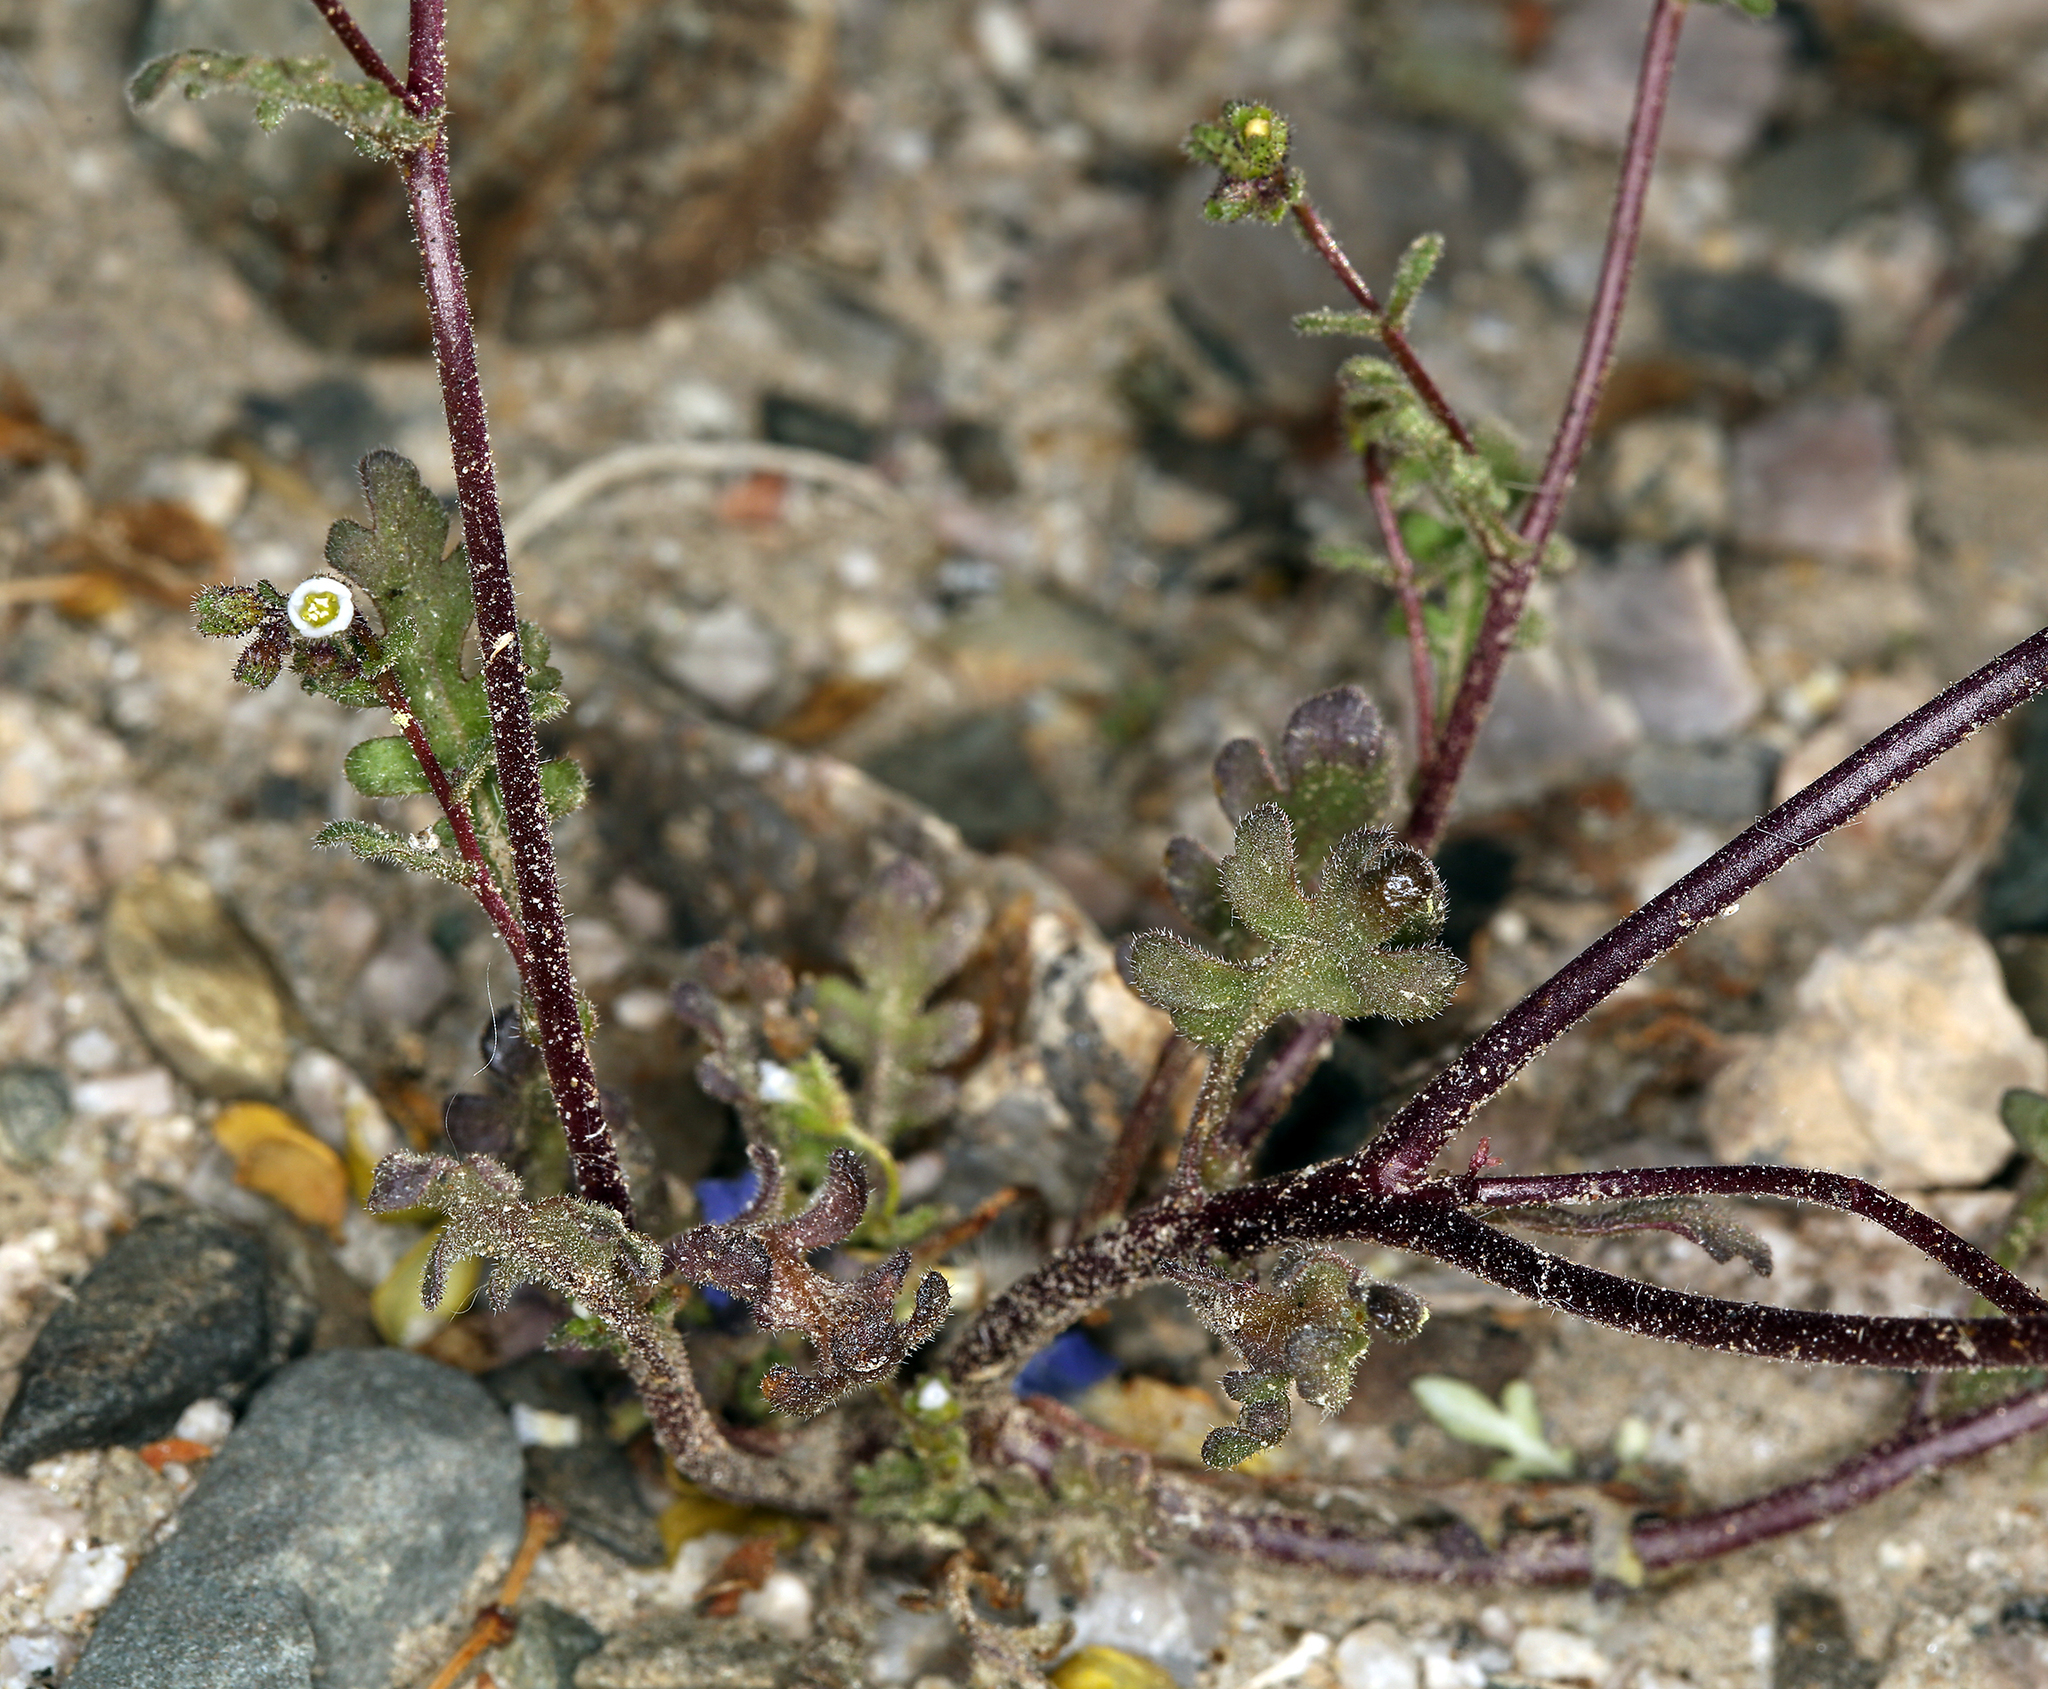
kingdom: Plantae
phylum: Tracheophyta
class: Magnoliopsida
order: Boraginales
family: Hydrophyllaceae
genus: Eucrypta
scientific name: Eucrypta micrantha
